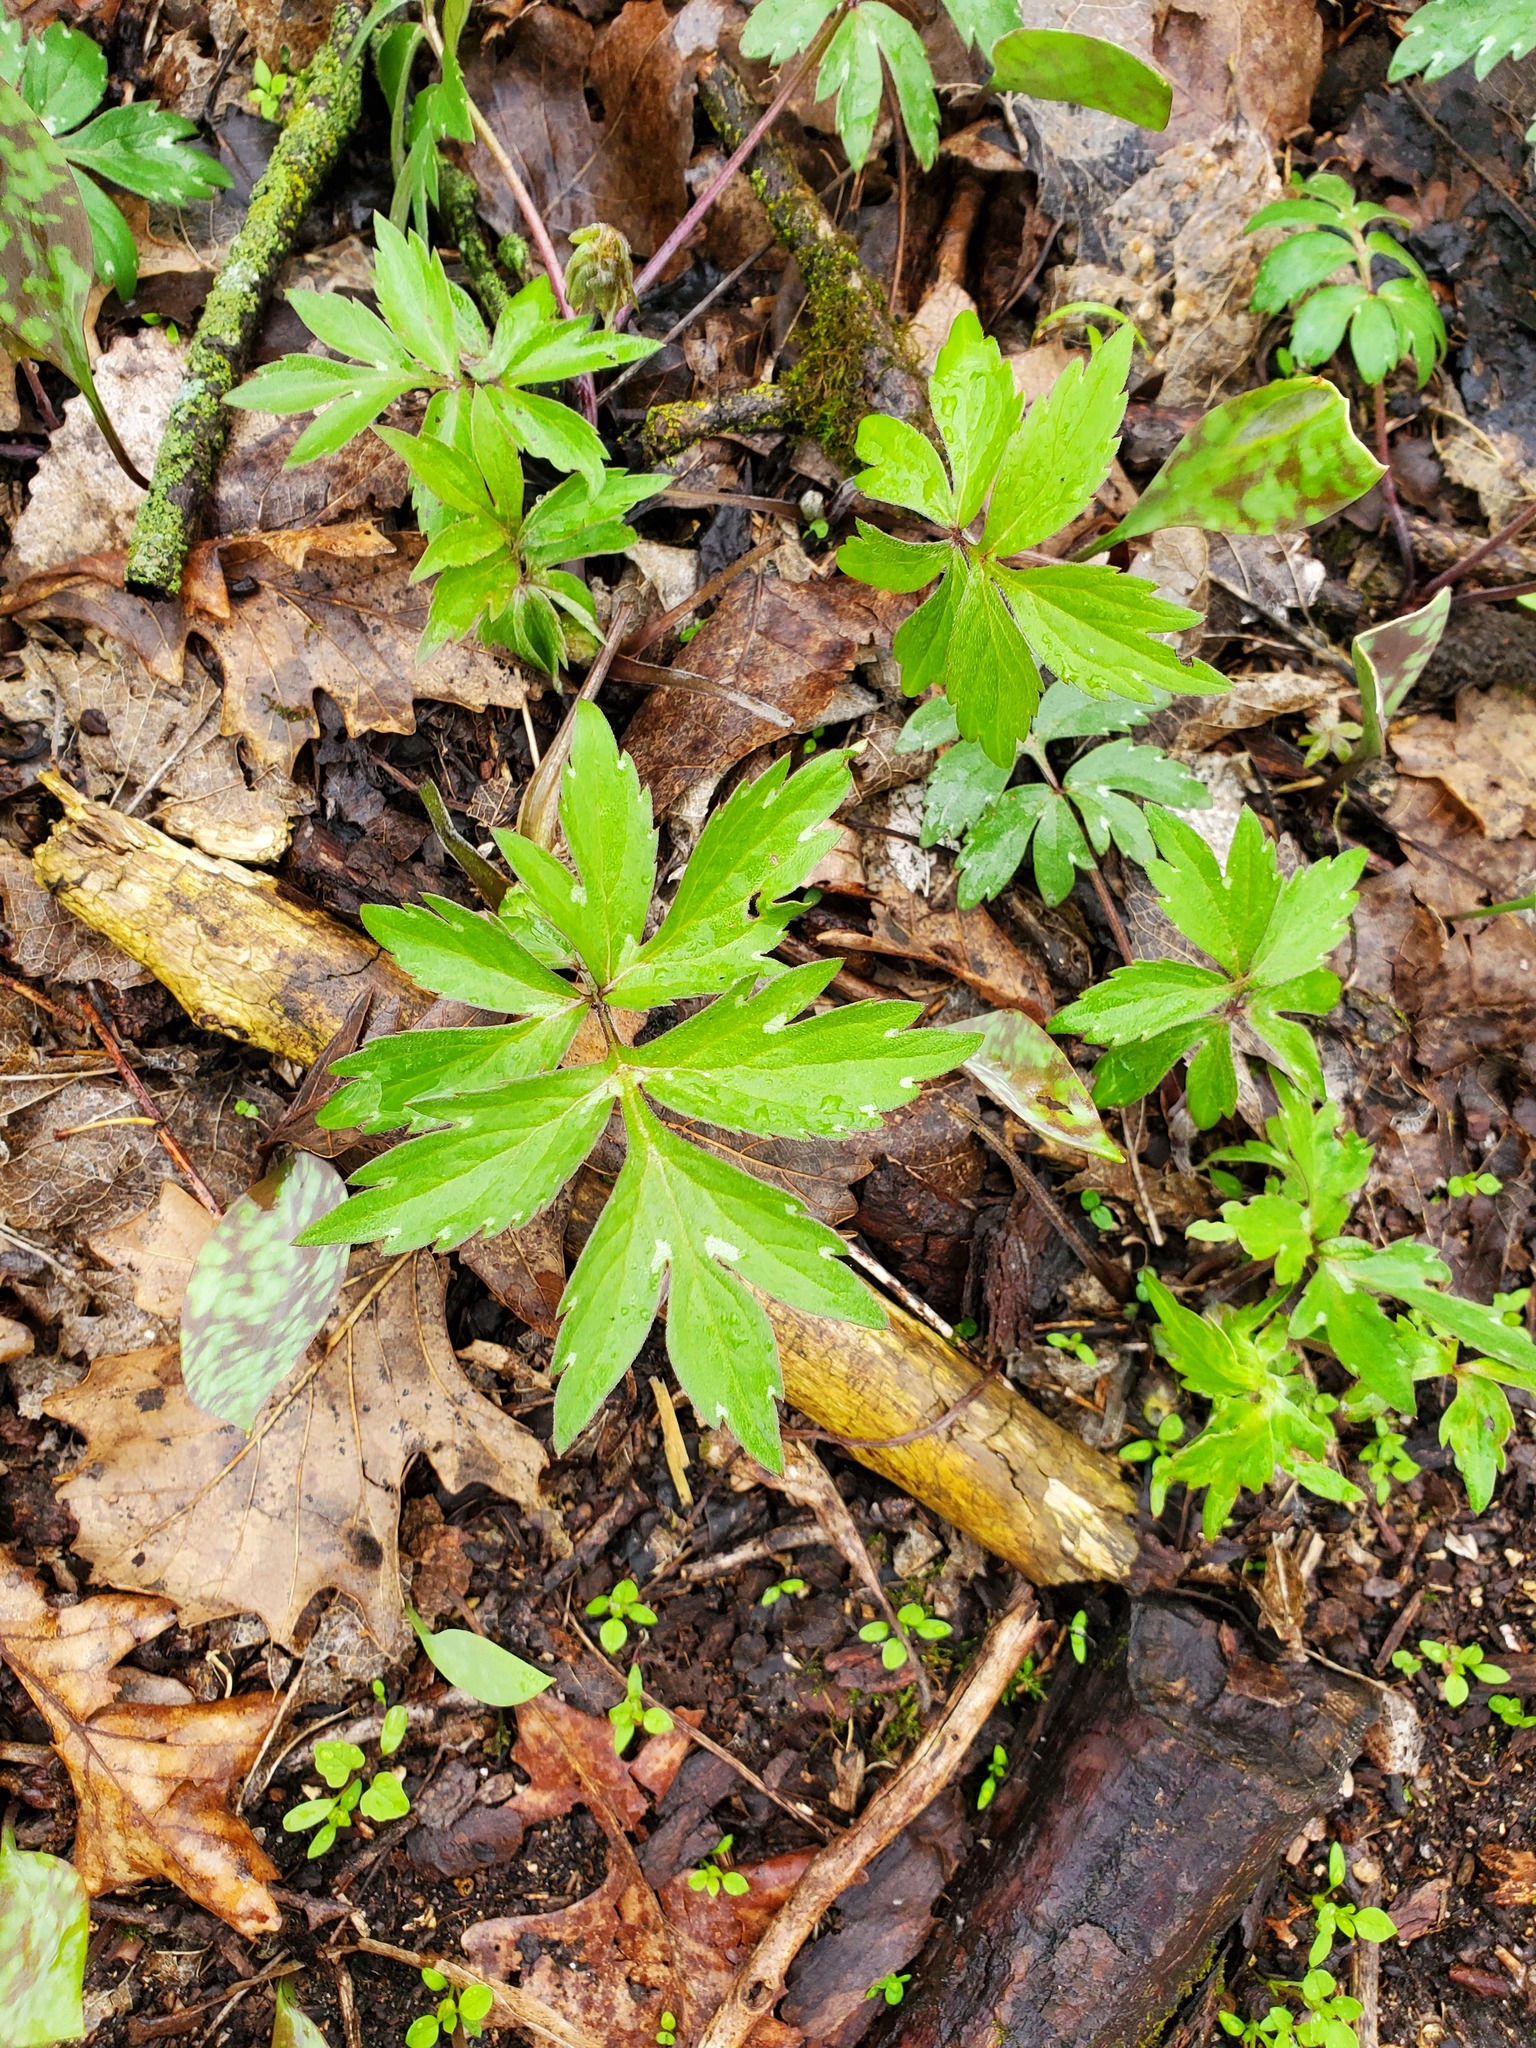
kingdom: Plantae
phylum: Tracheophyta
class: Magnoliopsida
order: Boraginales
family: Hydrophyllaceae
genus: Hydrophyllum
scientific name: Hydrophyllum virginianum
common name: Virginia waterleaf
